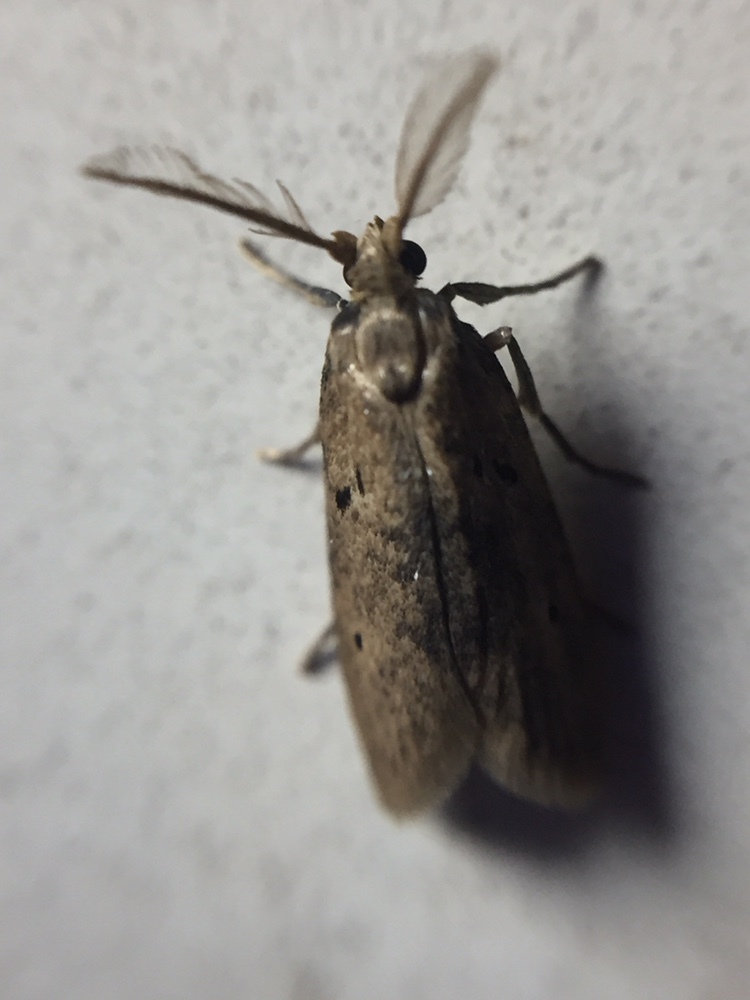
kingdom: Animalia
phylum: Arthropoda
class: Insecta
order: Lepidoptera
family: Galacticidae
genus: Tanaoctena
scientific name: Tanaoctena dubia
